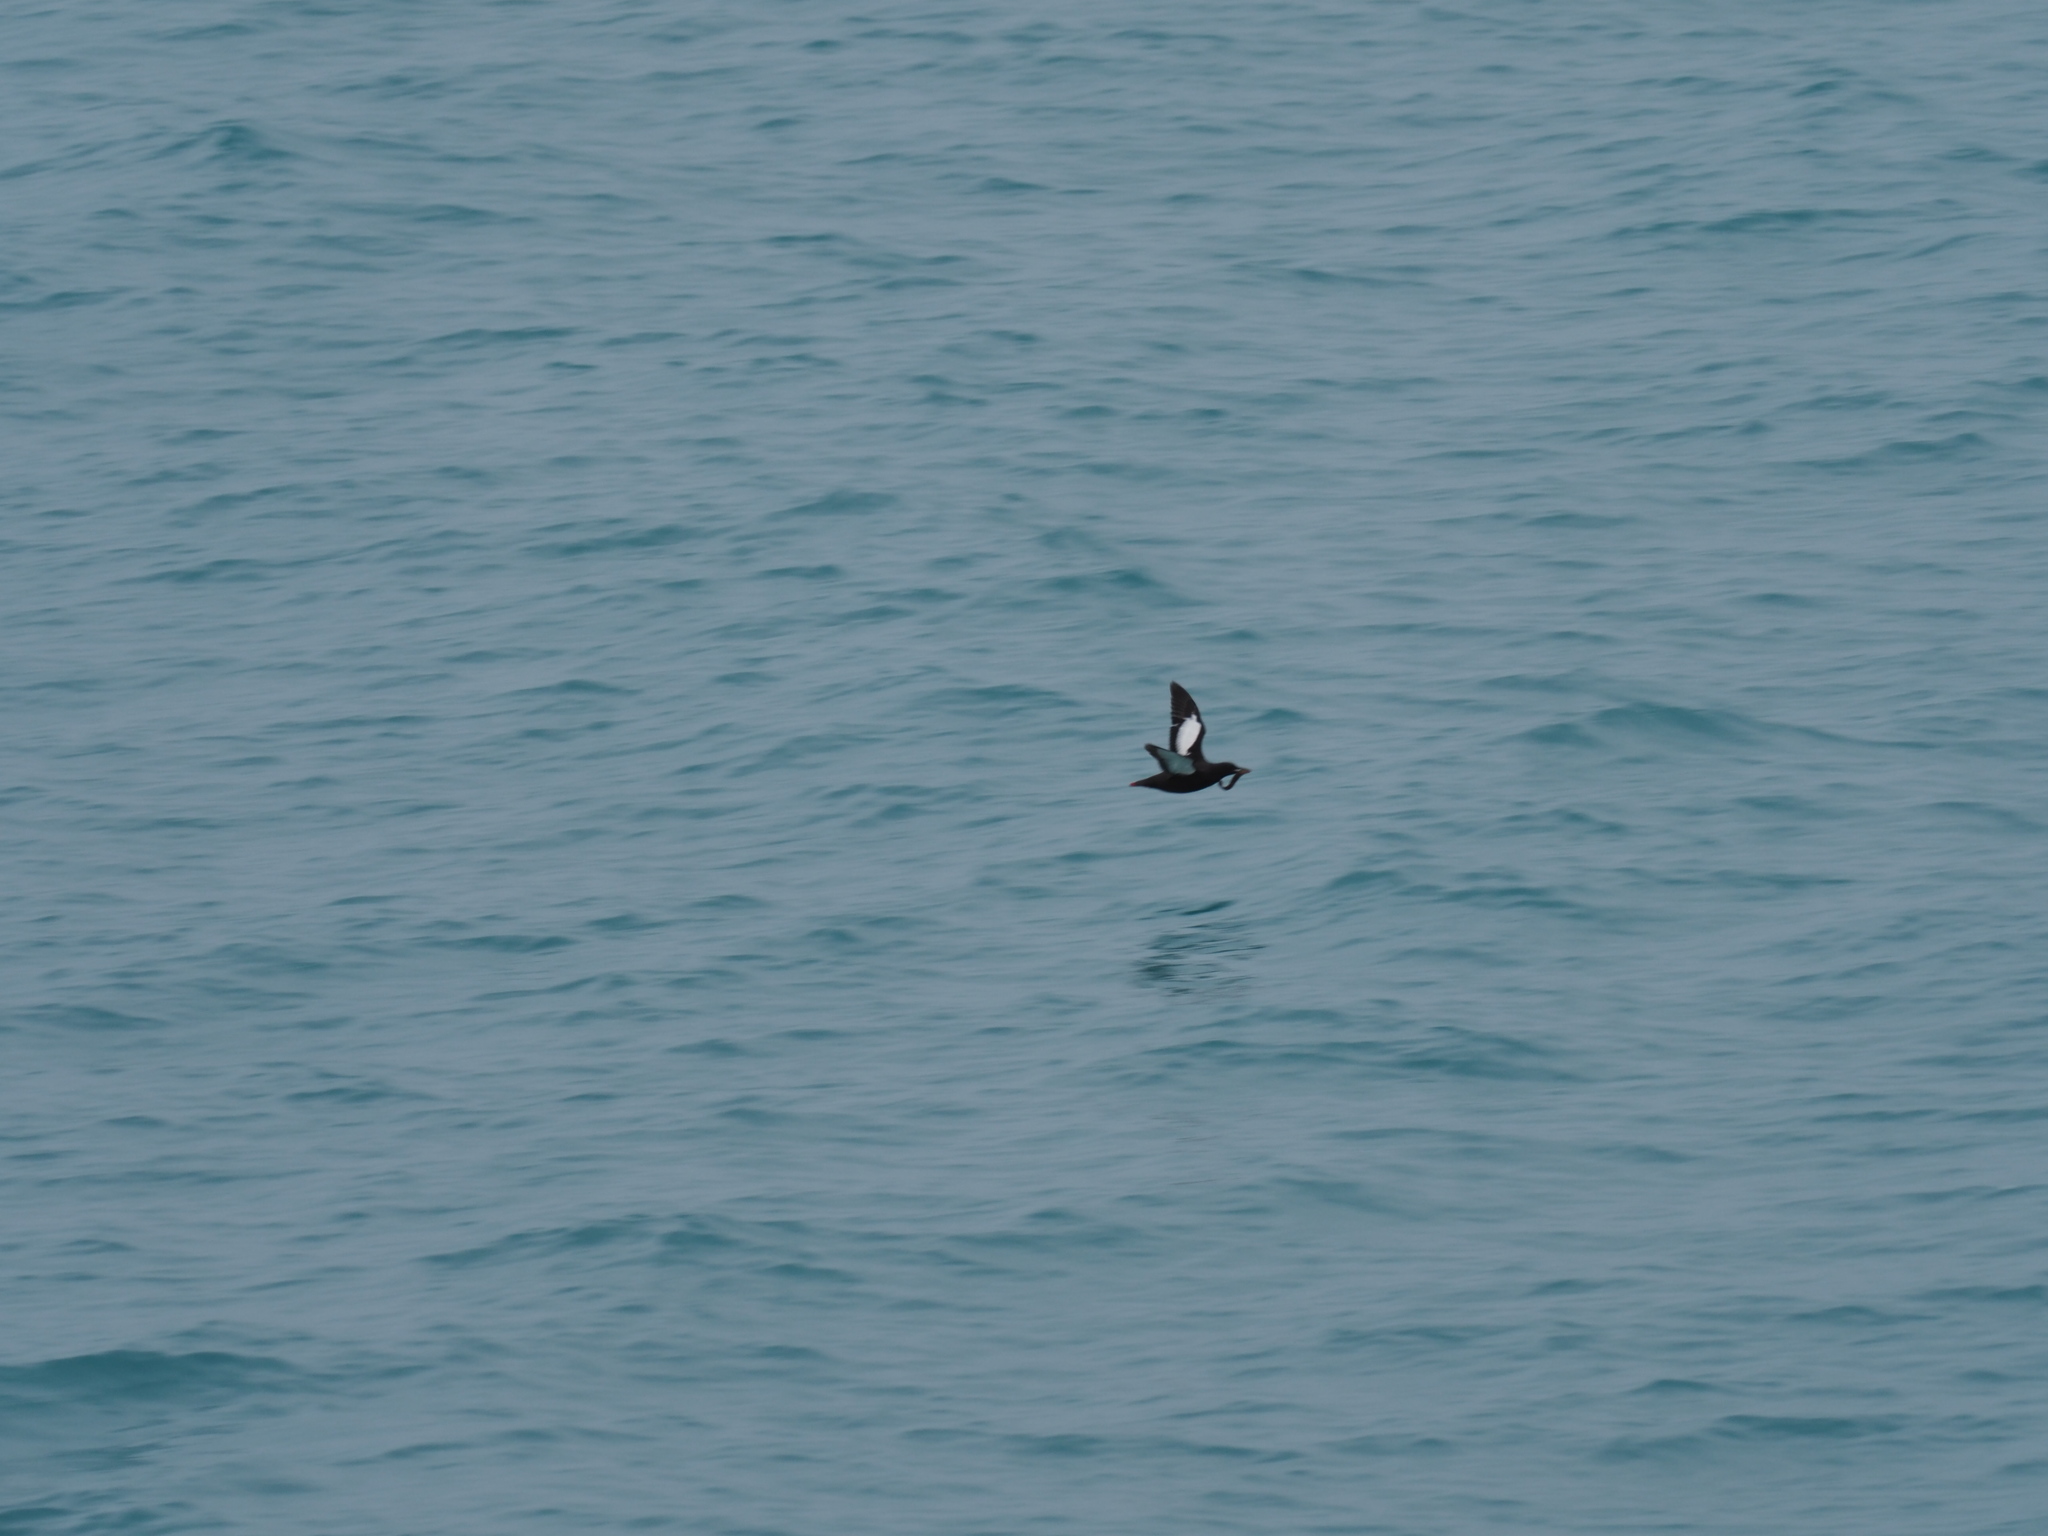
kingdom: Animalia
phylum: Chordata
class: Aves
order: Charadriiformes
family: Alcidae
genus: Cepphus
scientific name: Cepphus grylle
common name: Black guillemot
